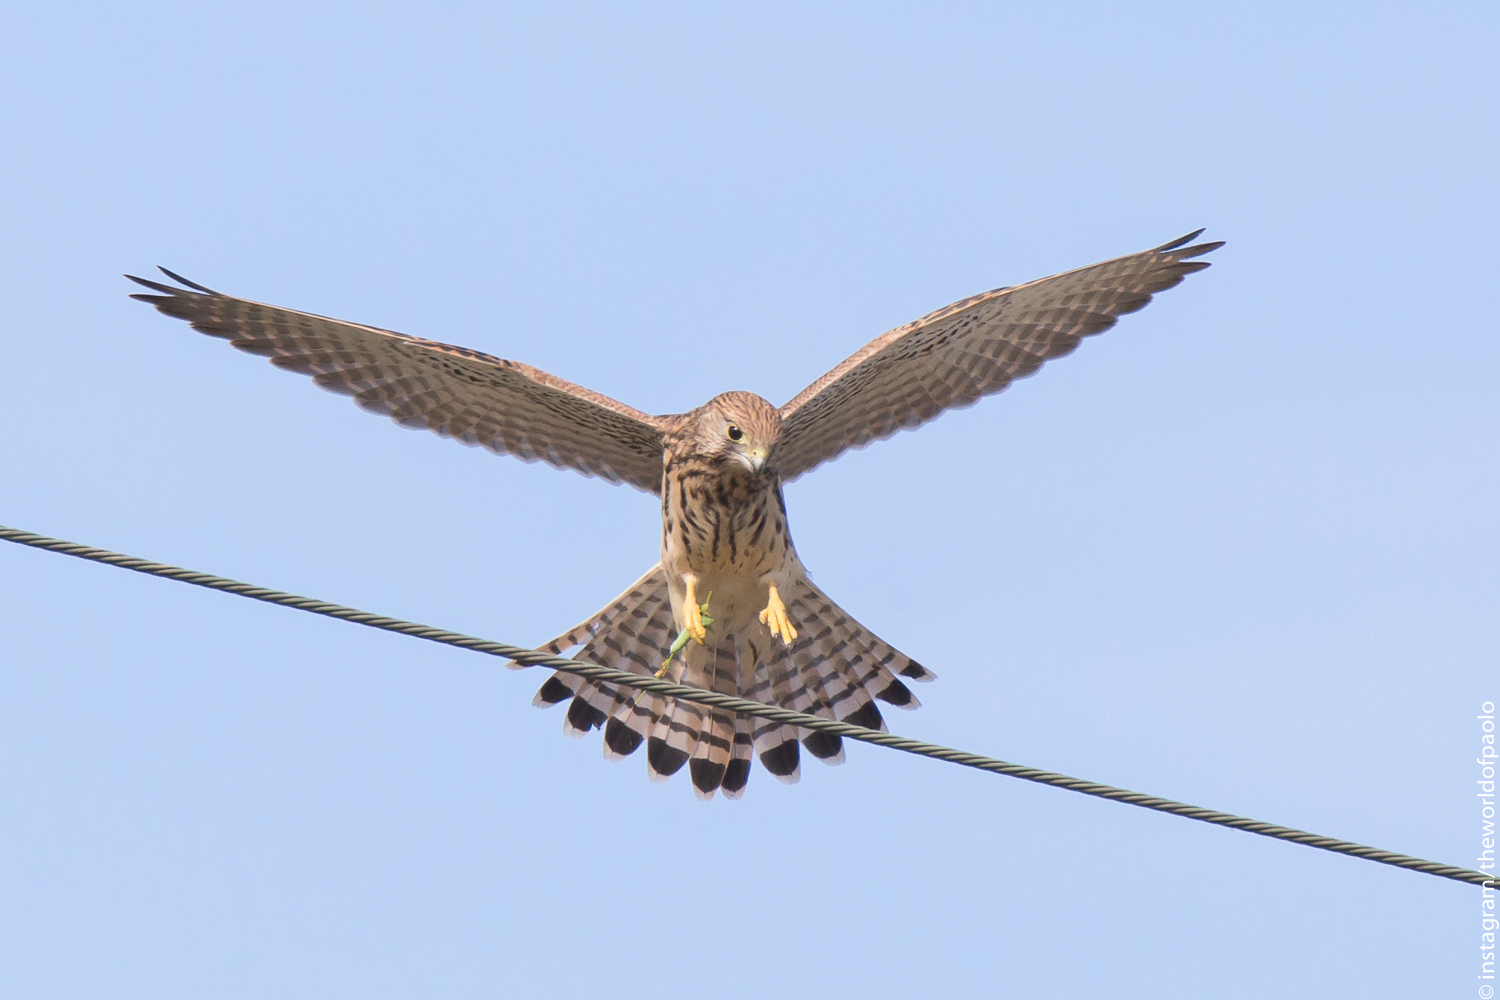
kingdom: Animalia
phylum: Chordata
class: Aves
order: Falconiformes
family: Falconidae
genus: Falco
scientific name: Falco tinnunculus
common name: Common kestrel
